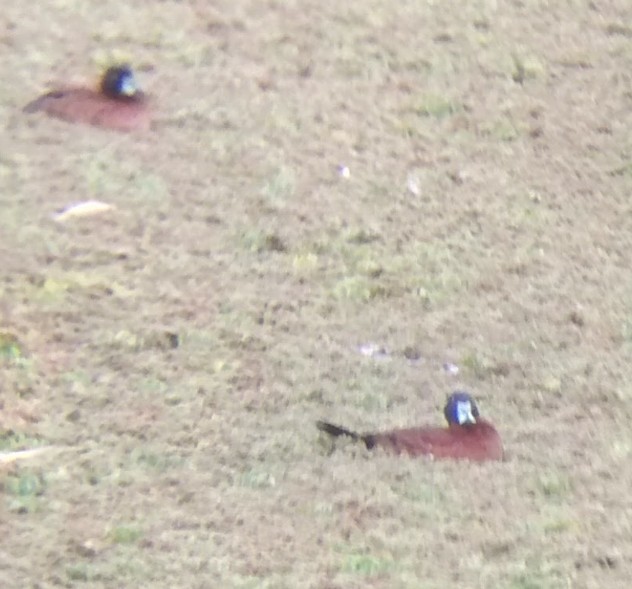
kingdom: Animalia
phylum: Chordata
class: Aves
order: Anseriformes
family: Anatidae
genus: Nomonyx
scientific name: Nomonyx dominicus
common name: Masked duck
